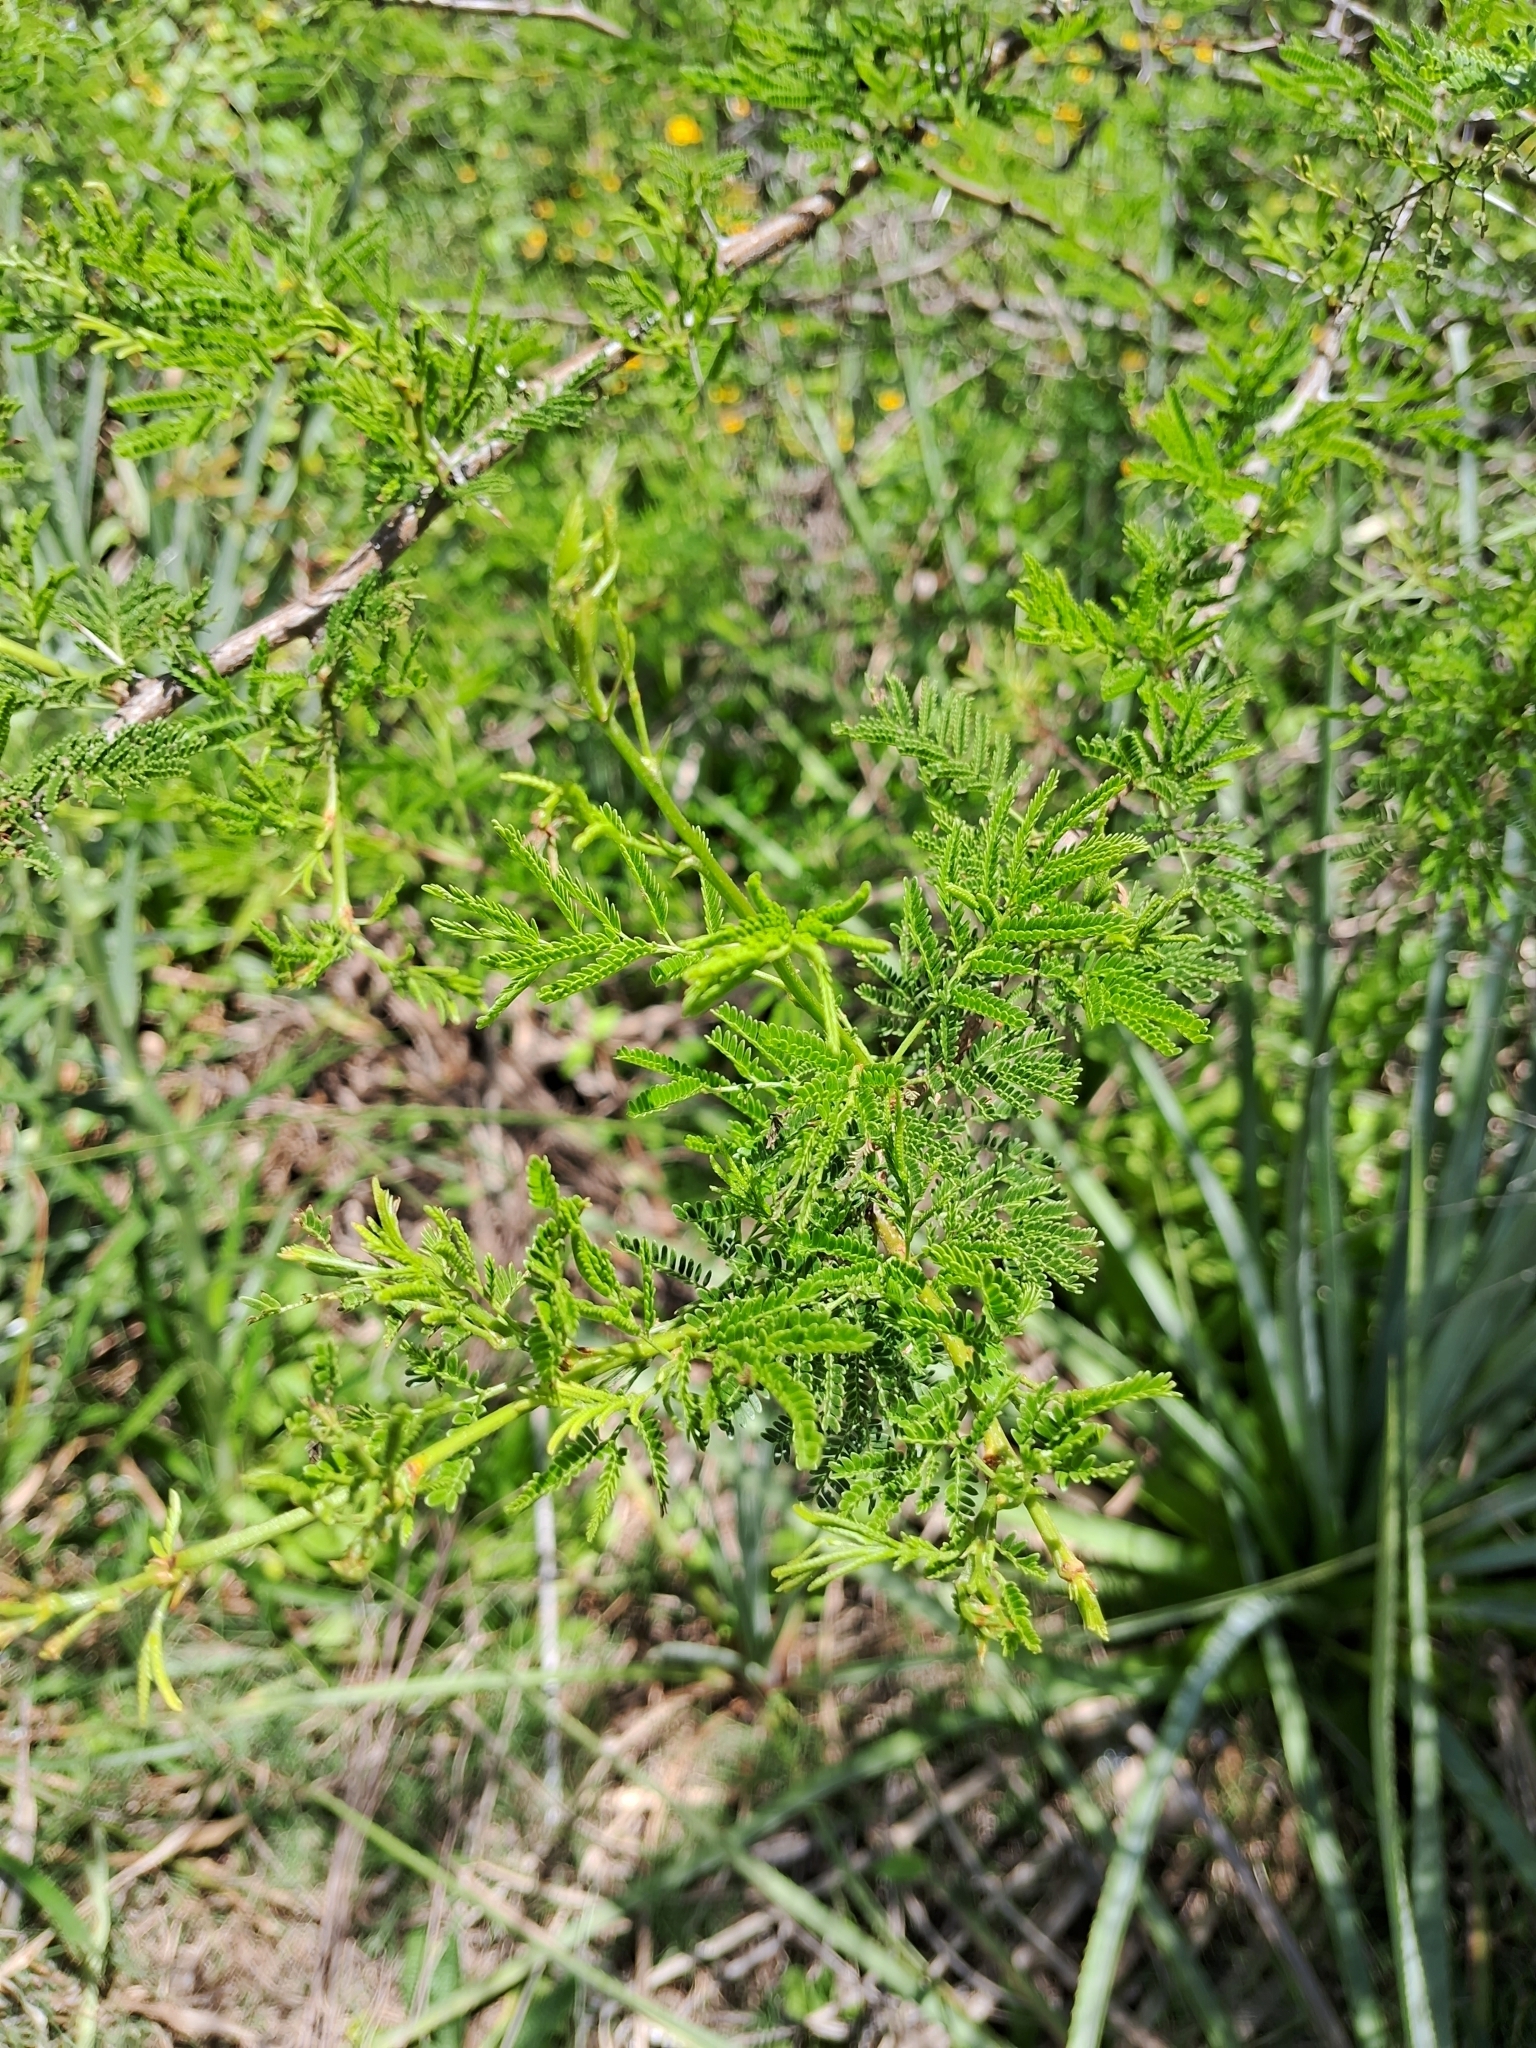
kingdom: Plantae
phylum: Tracheophyta
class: Magnoliopsida
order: Fabales
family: Fabaceae
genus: Vachellia
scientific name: Vachellia caven
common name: Roman cassie
